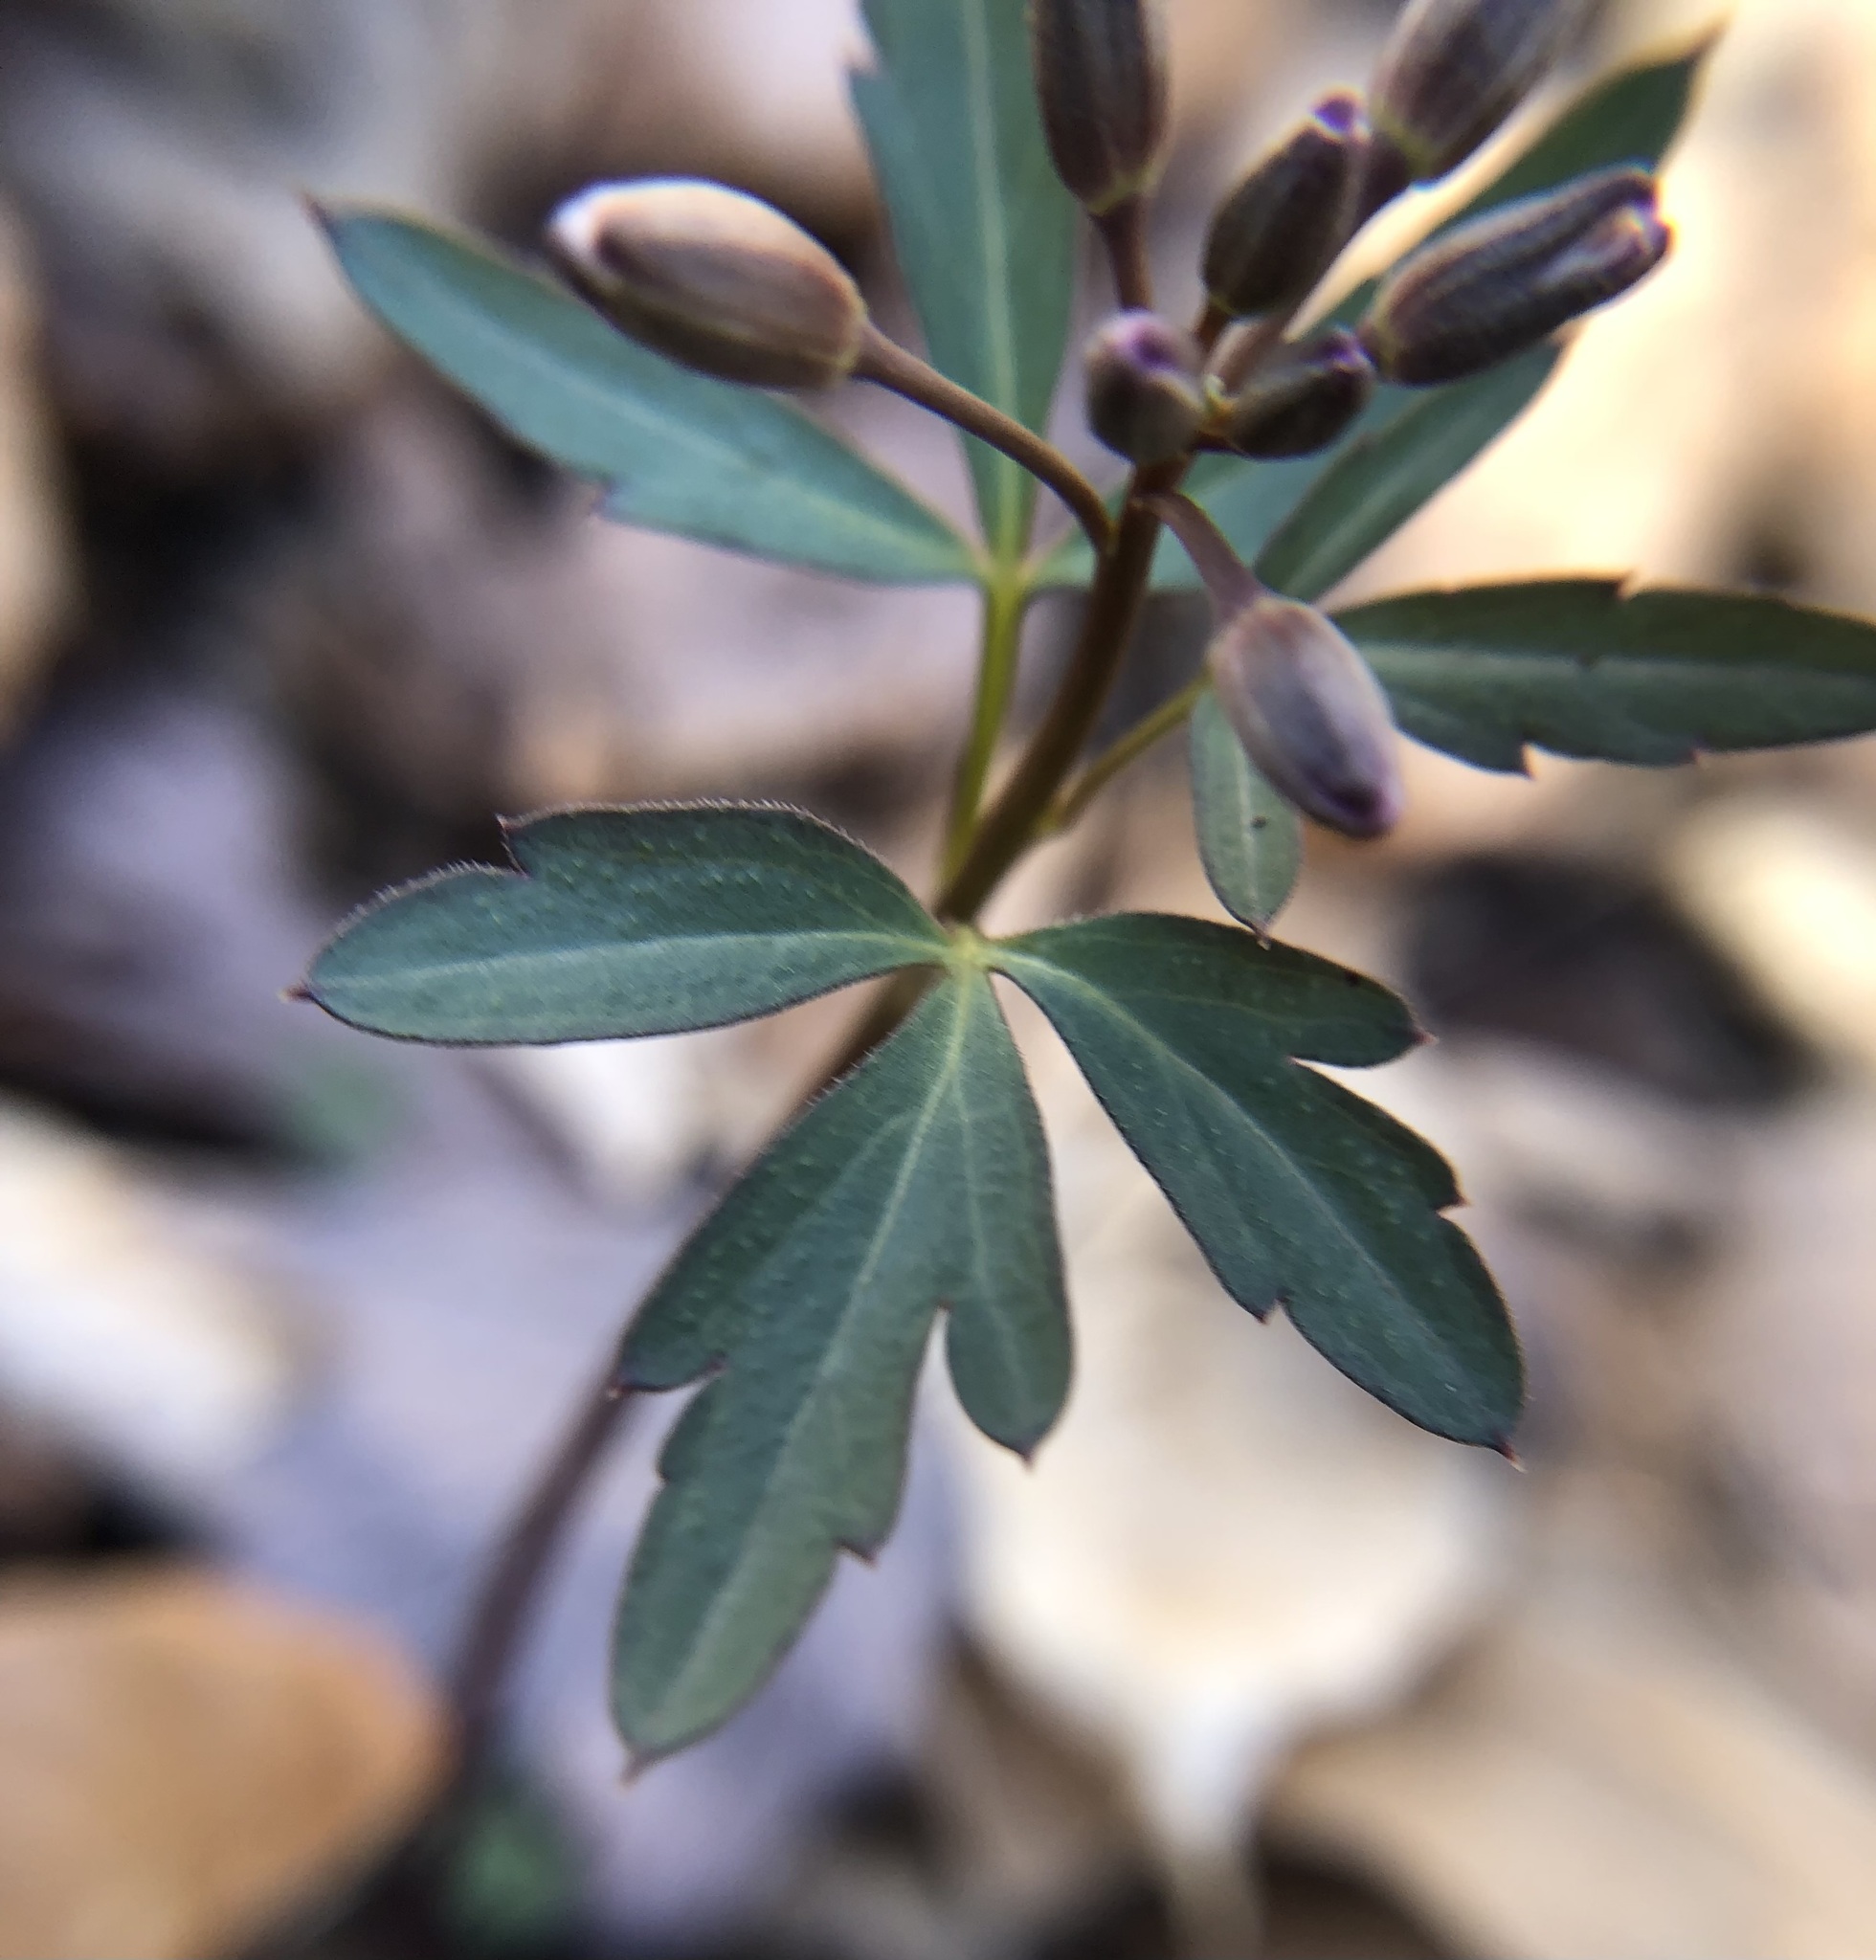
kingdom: Plantae
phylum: Tracheophyta
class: Magnoliopsida
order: Brassicales
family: Brassicaceae
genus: Cardamine
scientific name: Cardamine angustata
